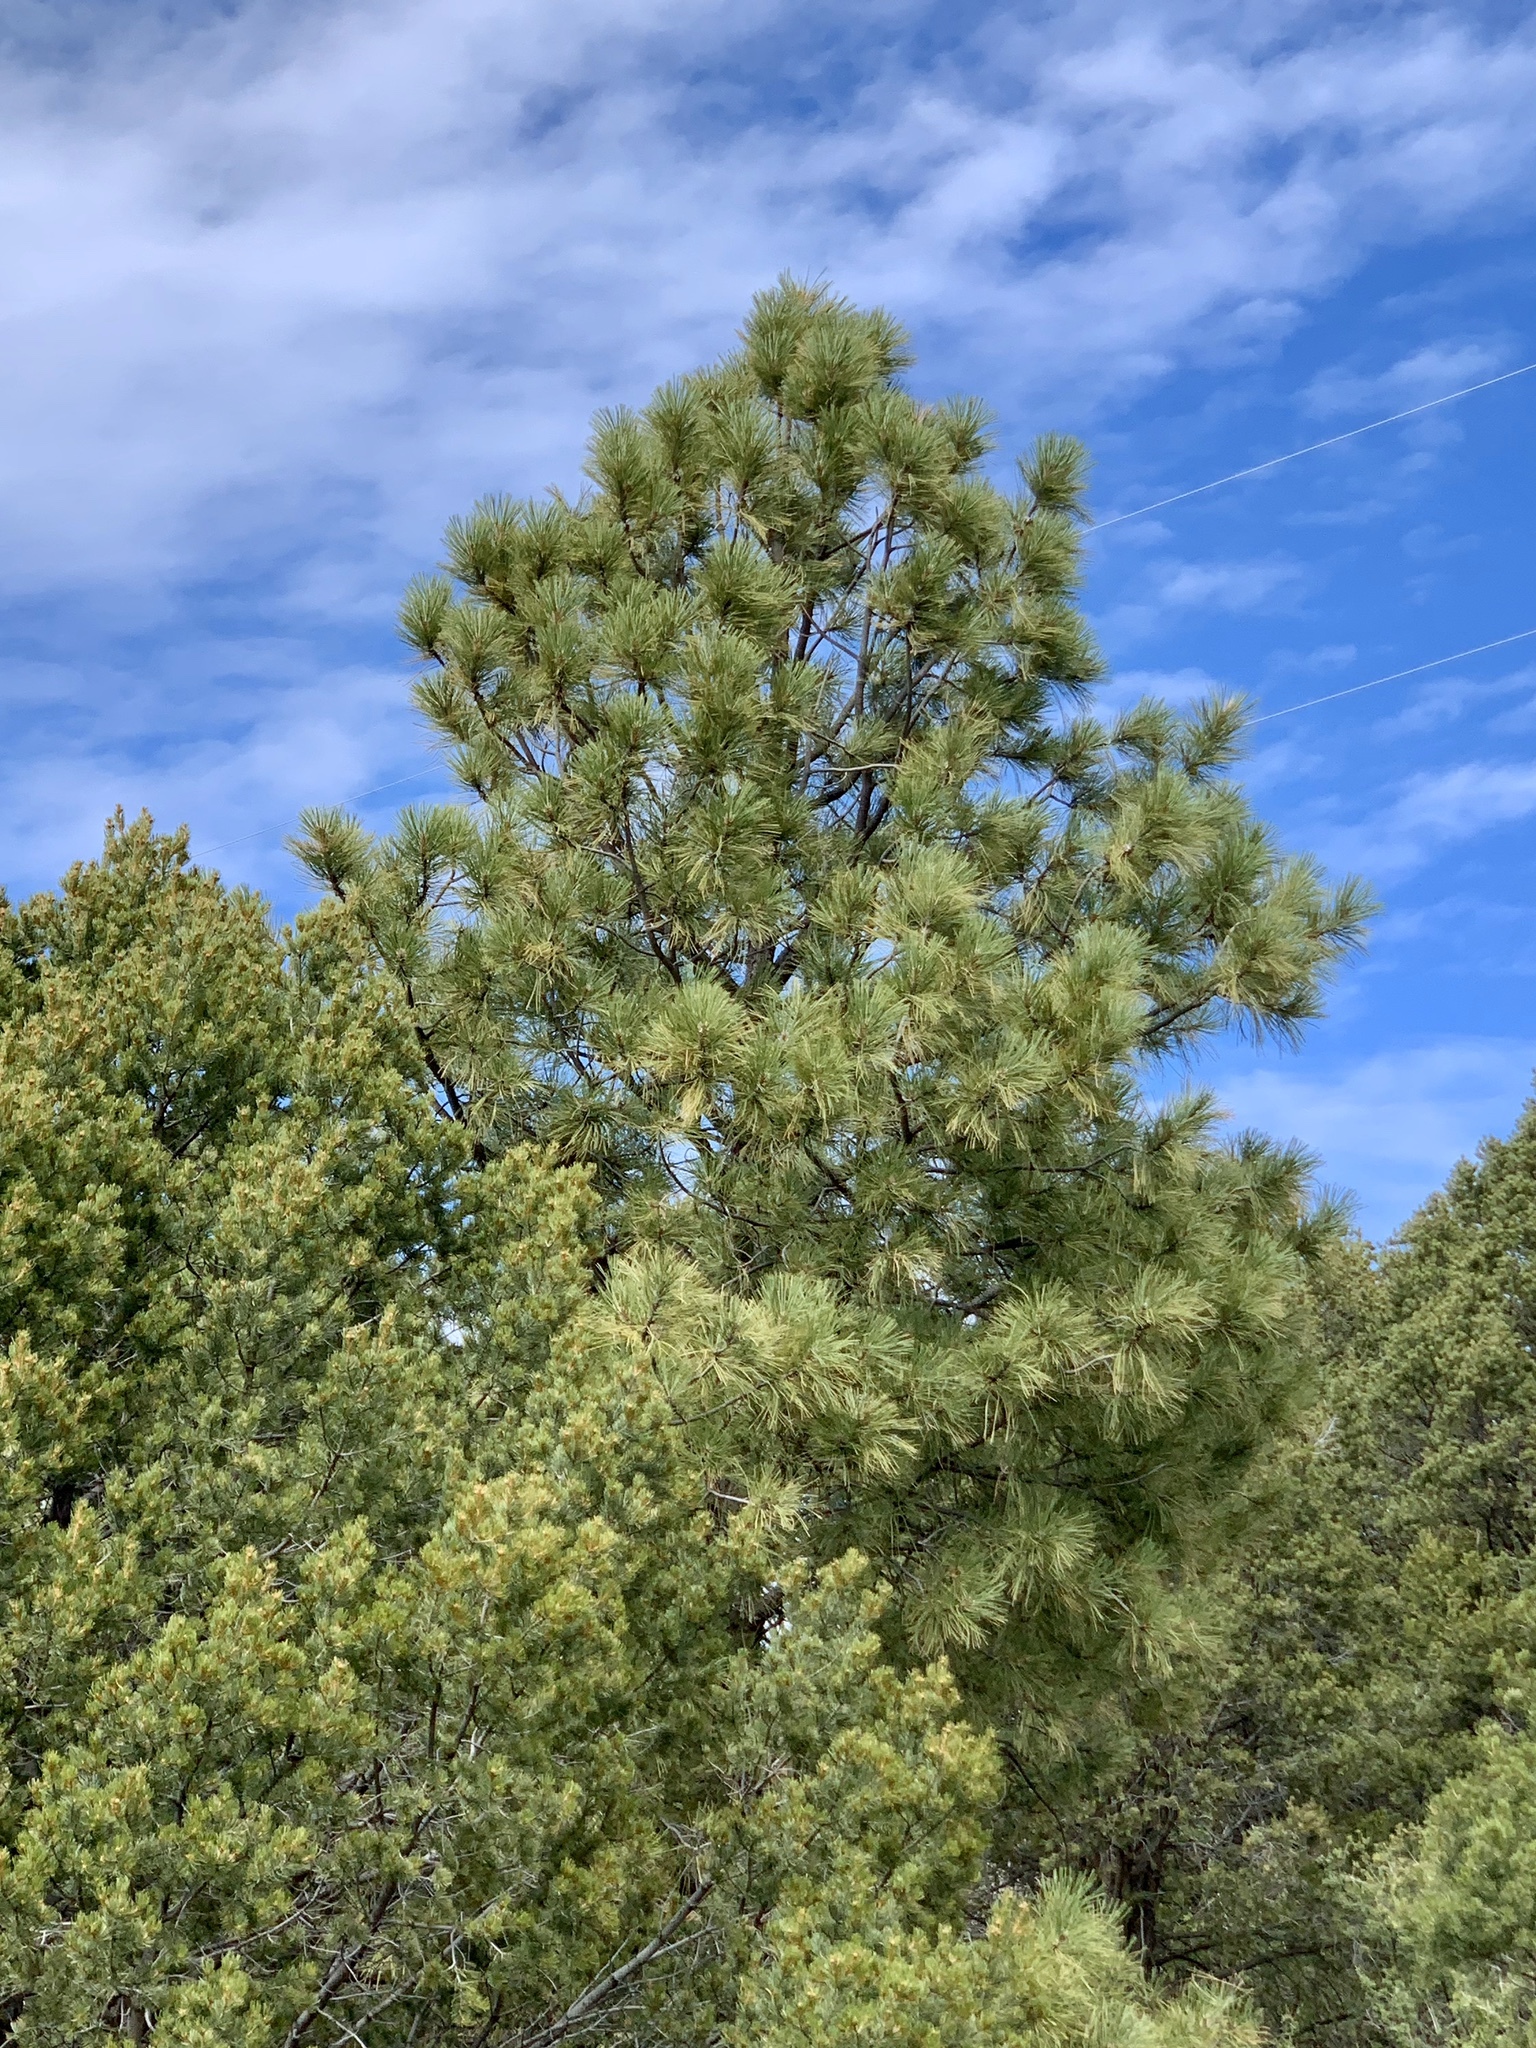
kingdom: Plantae
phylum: Tracheophyta
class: Pinopsida
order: Pinales
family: Pinaceae
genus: Pinus
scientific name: Pinus ponderosa
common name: Western yellow-pine
